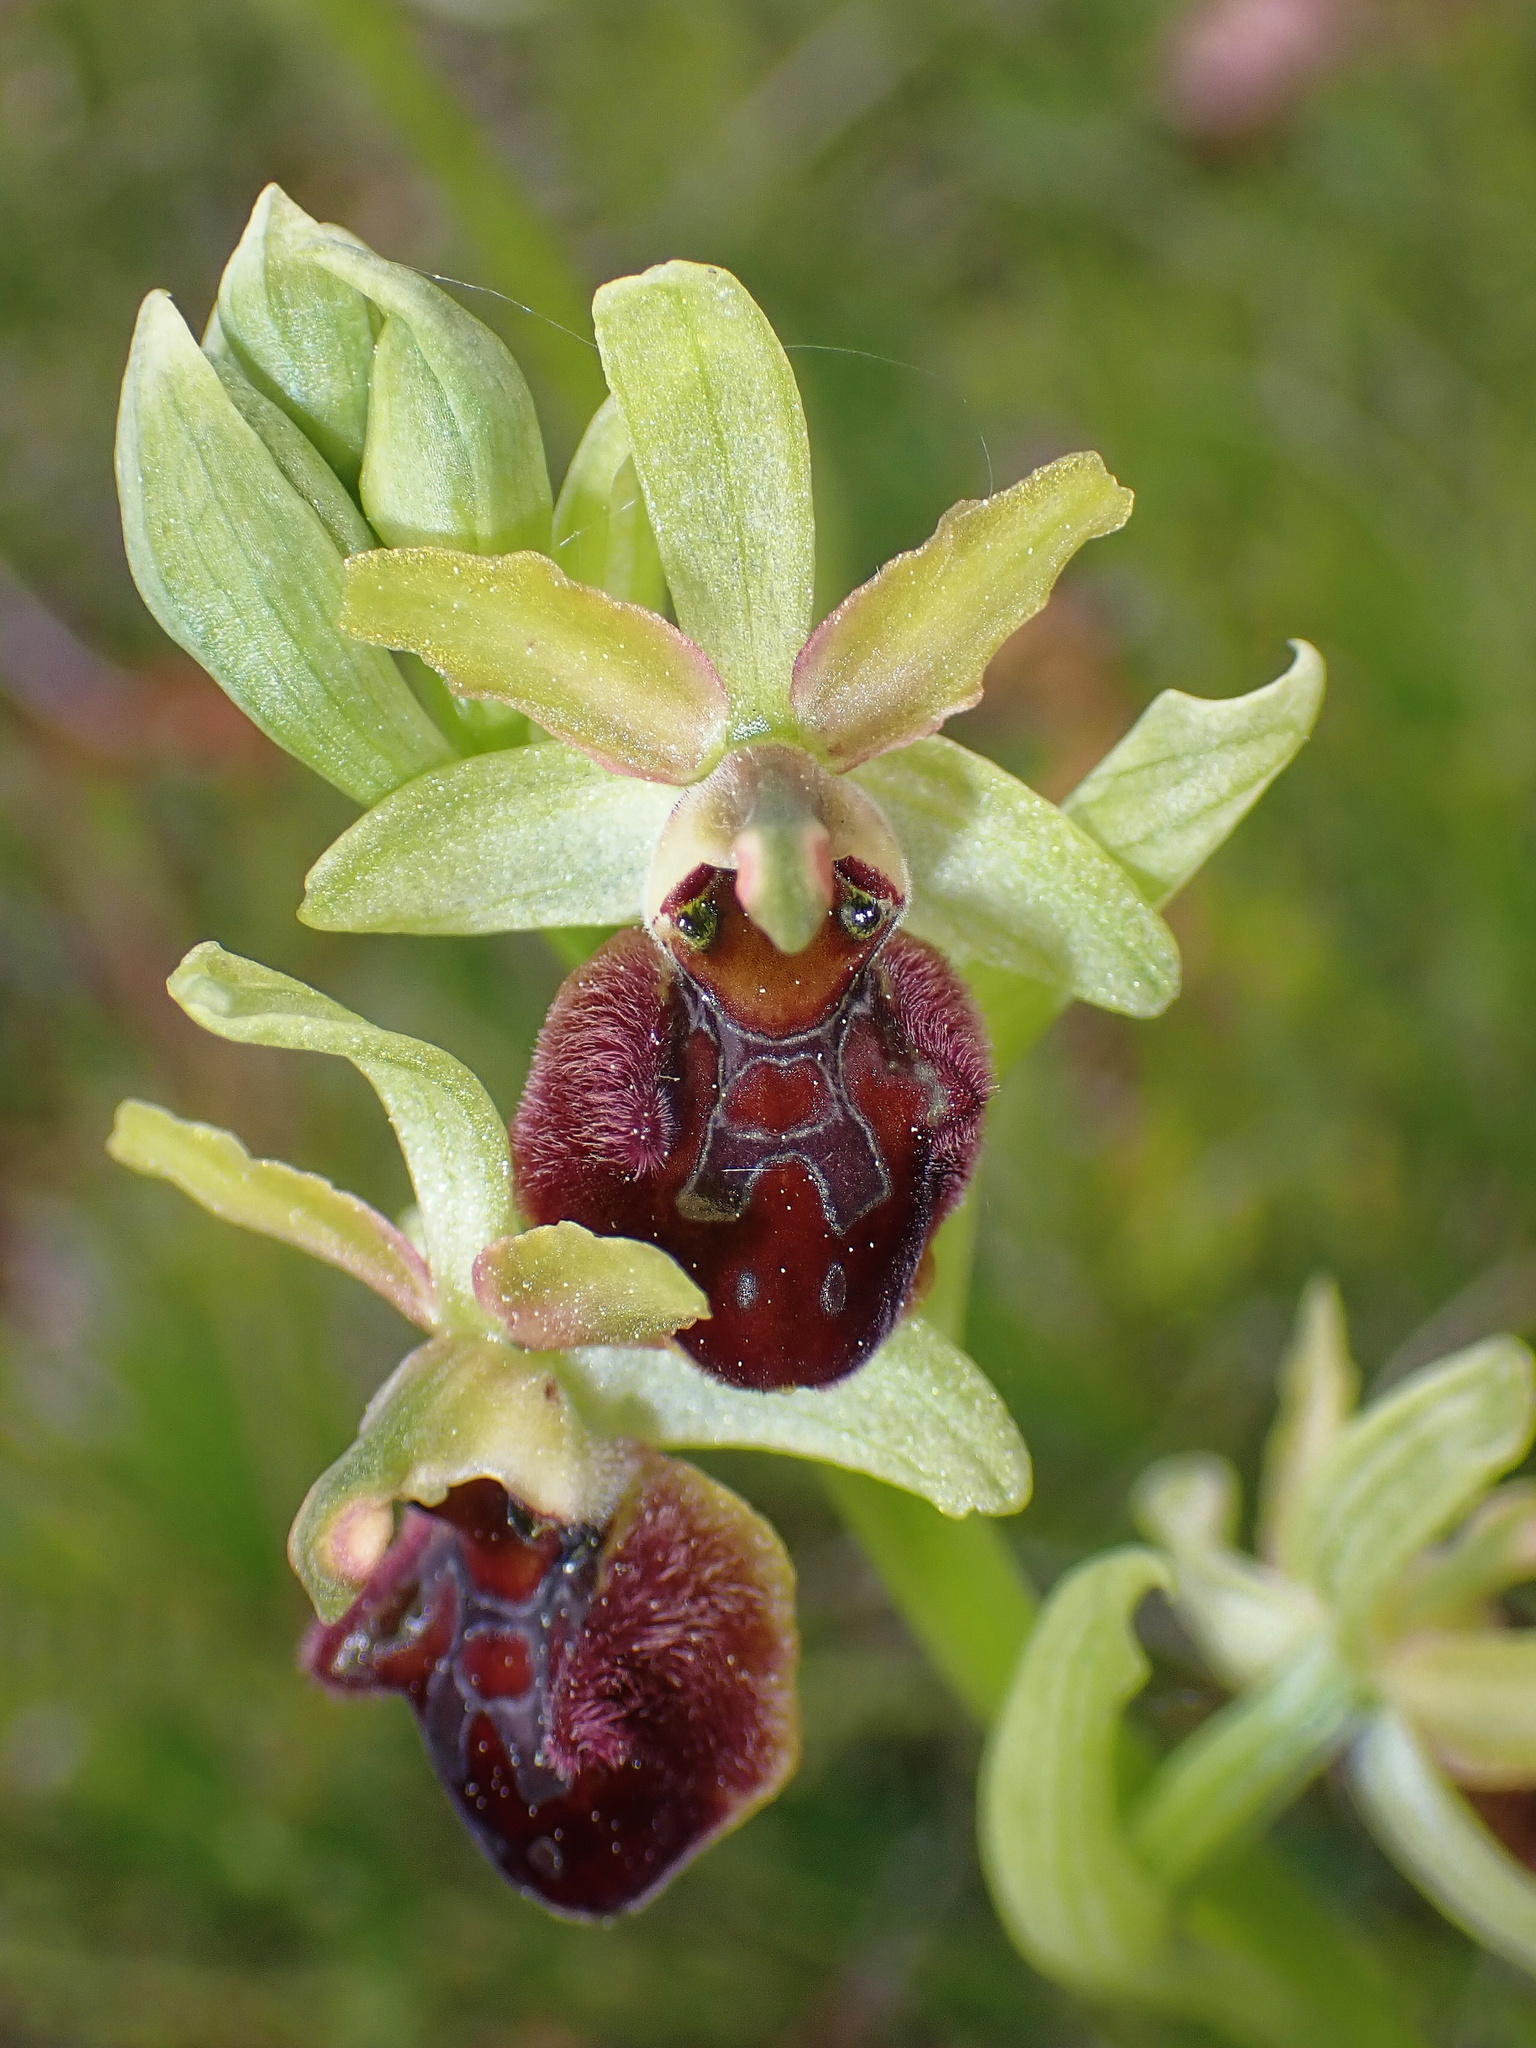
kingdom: Plantae
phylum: Tracheophyta
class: Liliopsida
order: Asparagales
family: Orchidaceae
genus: Ophrys
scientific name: Ophrys sphegodes
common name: Early spider-orchid
